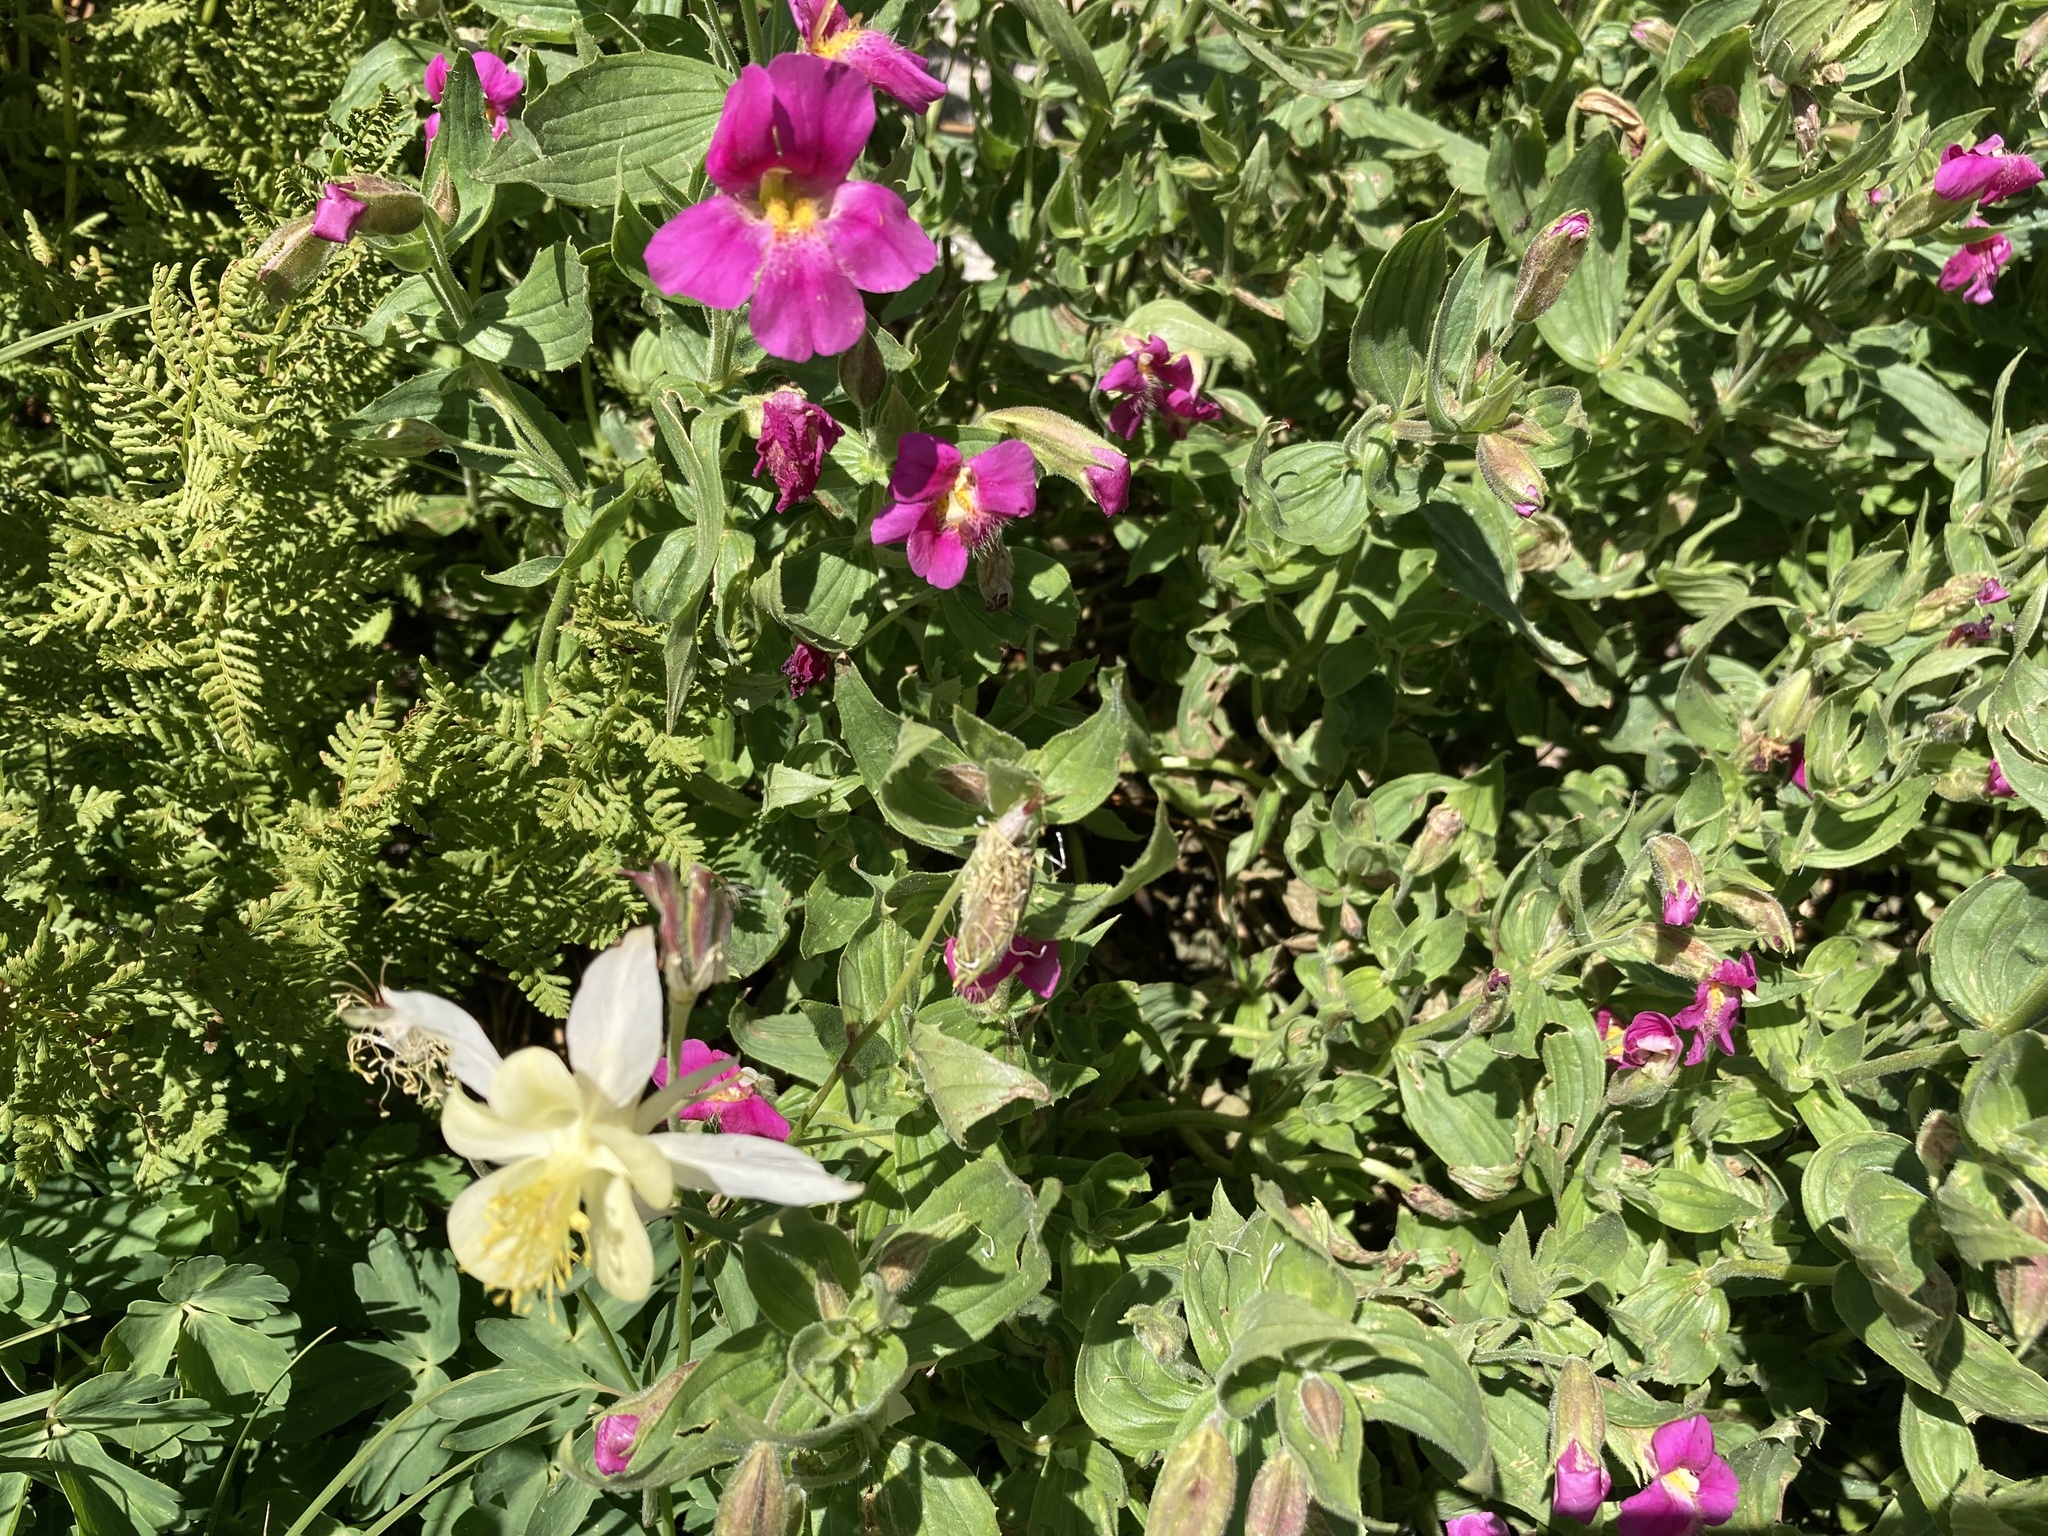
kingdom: Plantae
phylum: Tracheophyta
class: Magnoliopsida
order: Lamiales
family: Phrymaceae
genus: Erythranthe
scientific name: Erythranthe lewisii
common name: Lewis's monkey-flower
